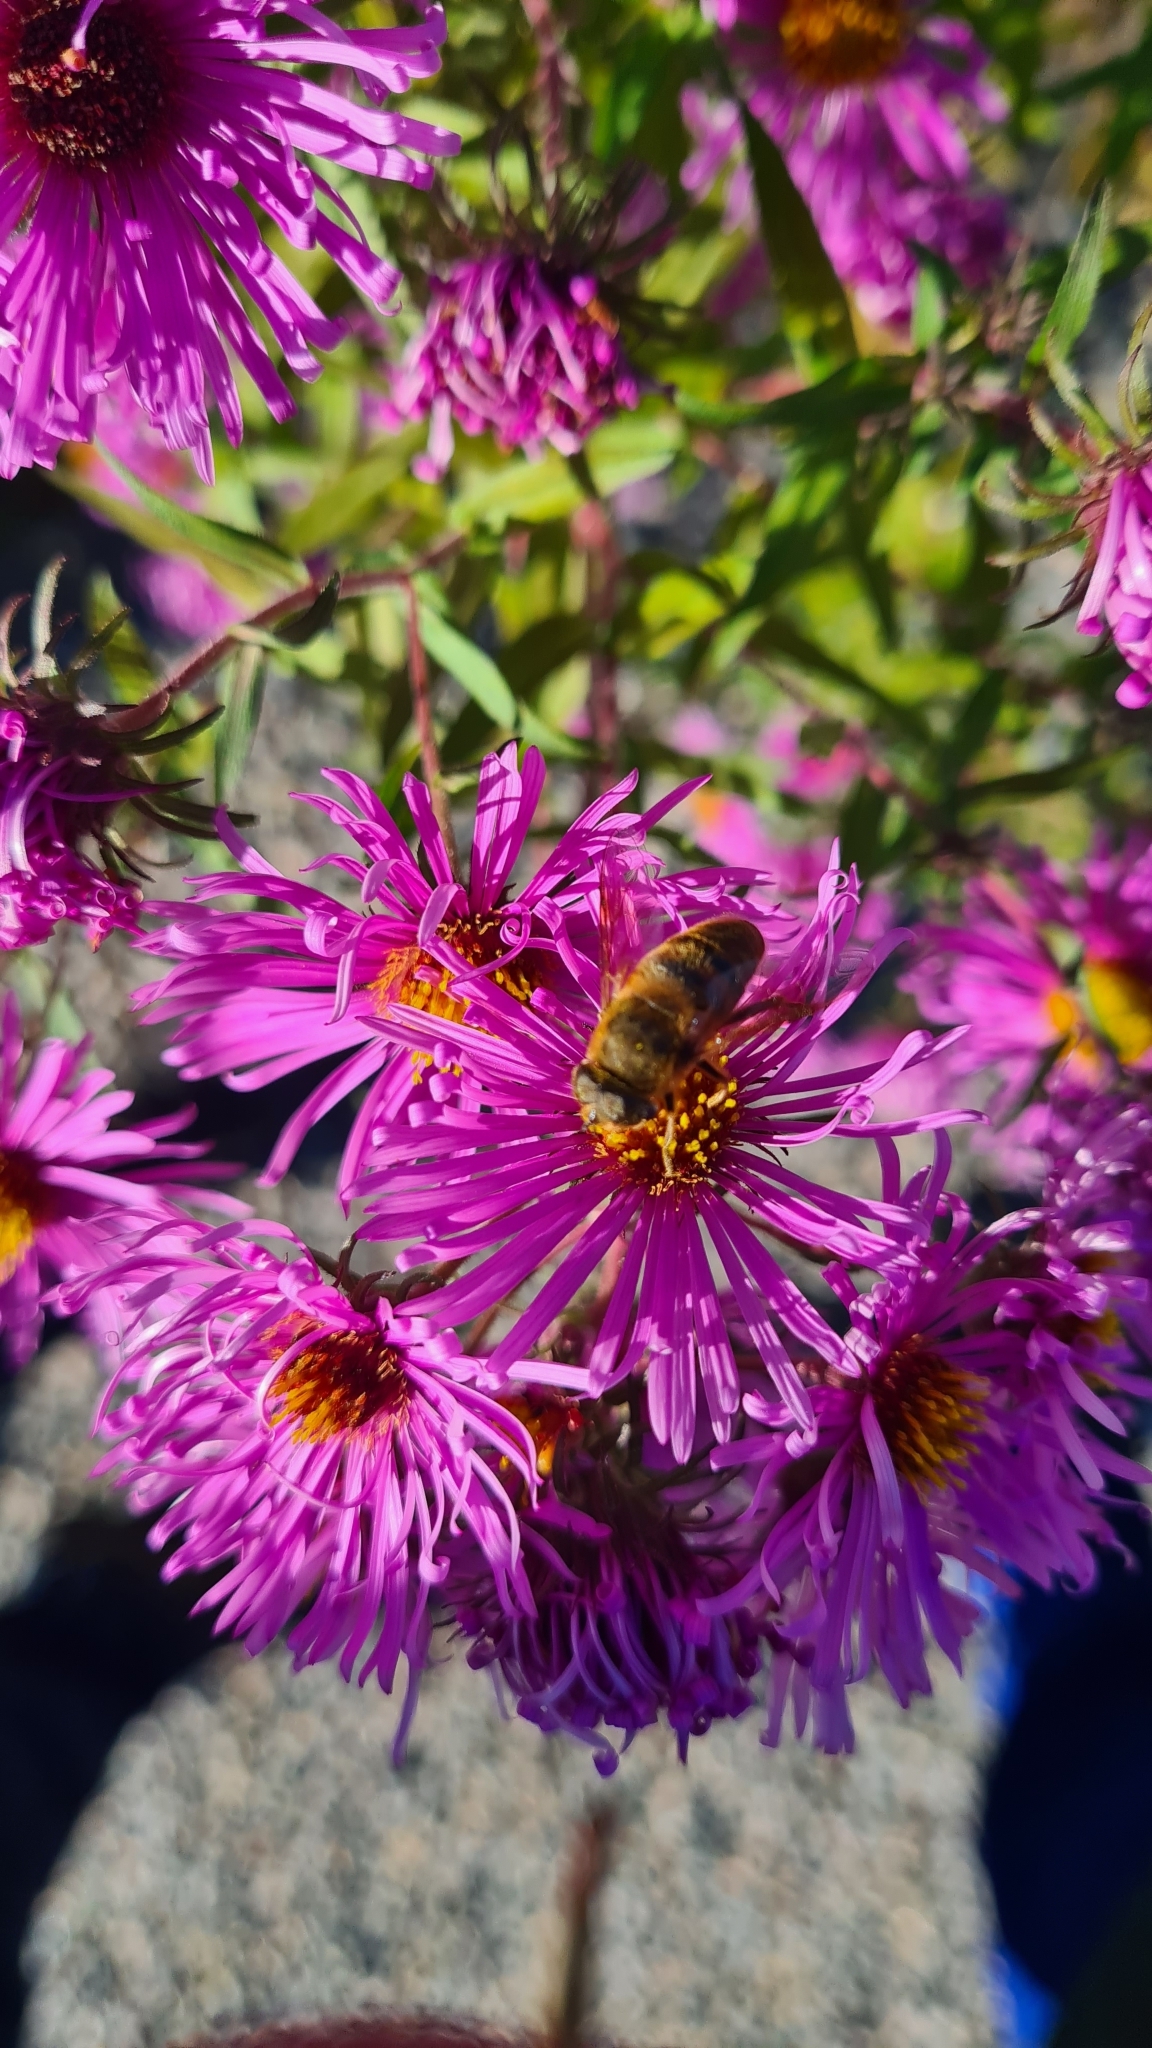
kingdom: Animalia
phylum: Arthropoda
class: Insecta
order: Diptera
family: Syrphidae
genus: Eristalis
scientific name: Eristalis tenax
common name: Drone fly
